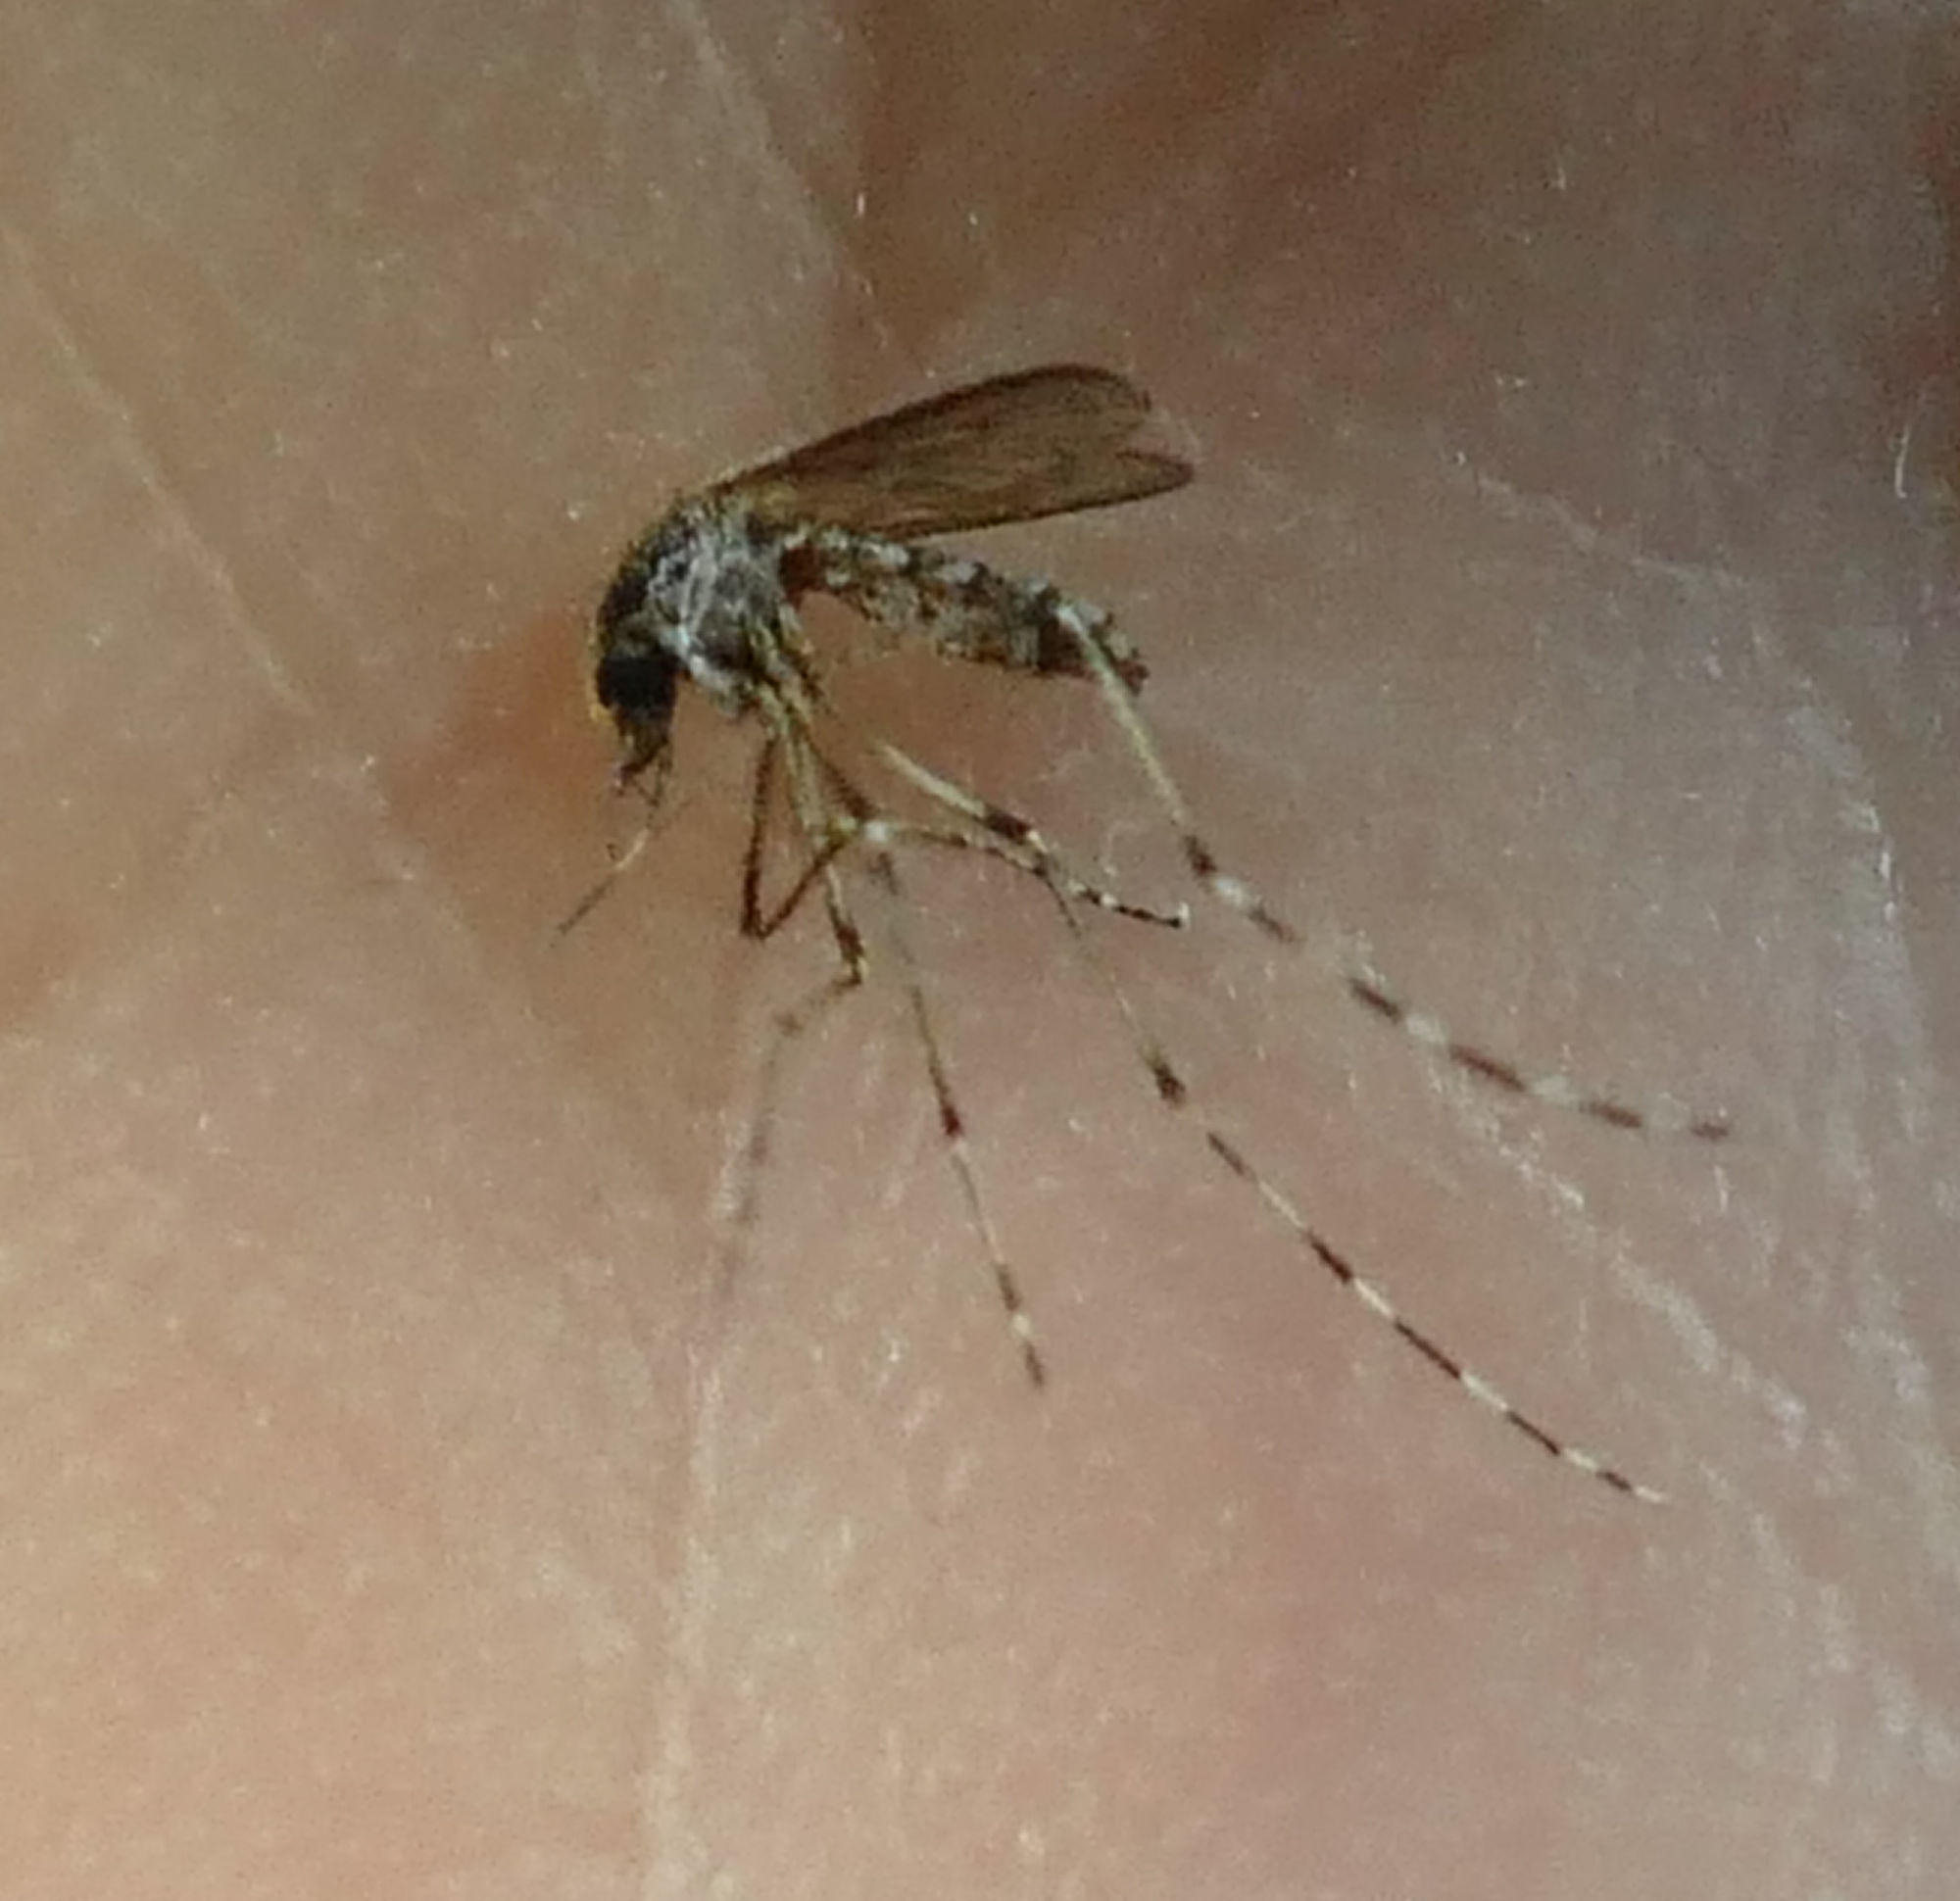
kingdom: Animalia
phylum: Arthropoda
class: Insecta
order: Diptera
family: Culicidae
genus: Aedes
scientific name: Aedes sollicitans
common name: Saltmarsh mosquito
